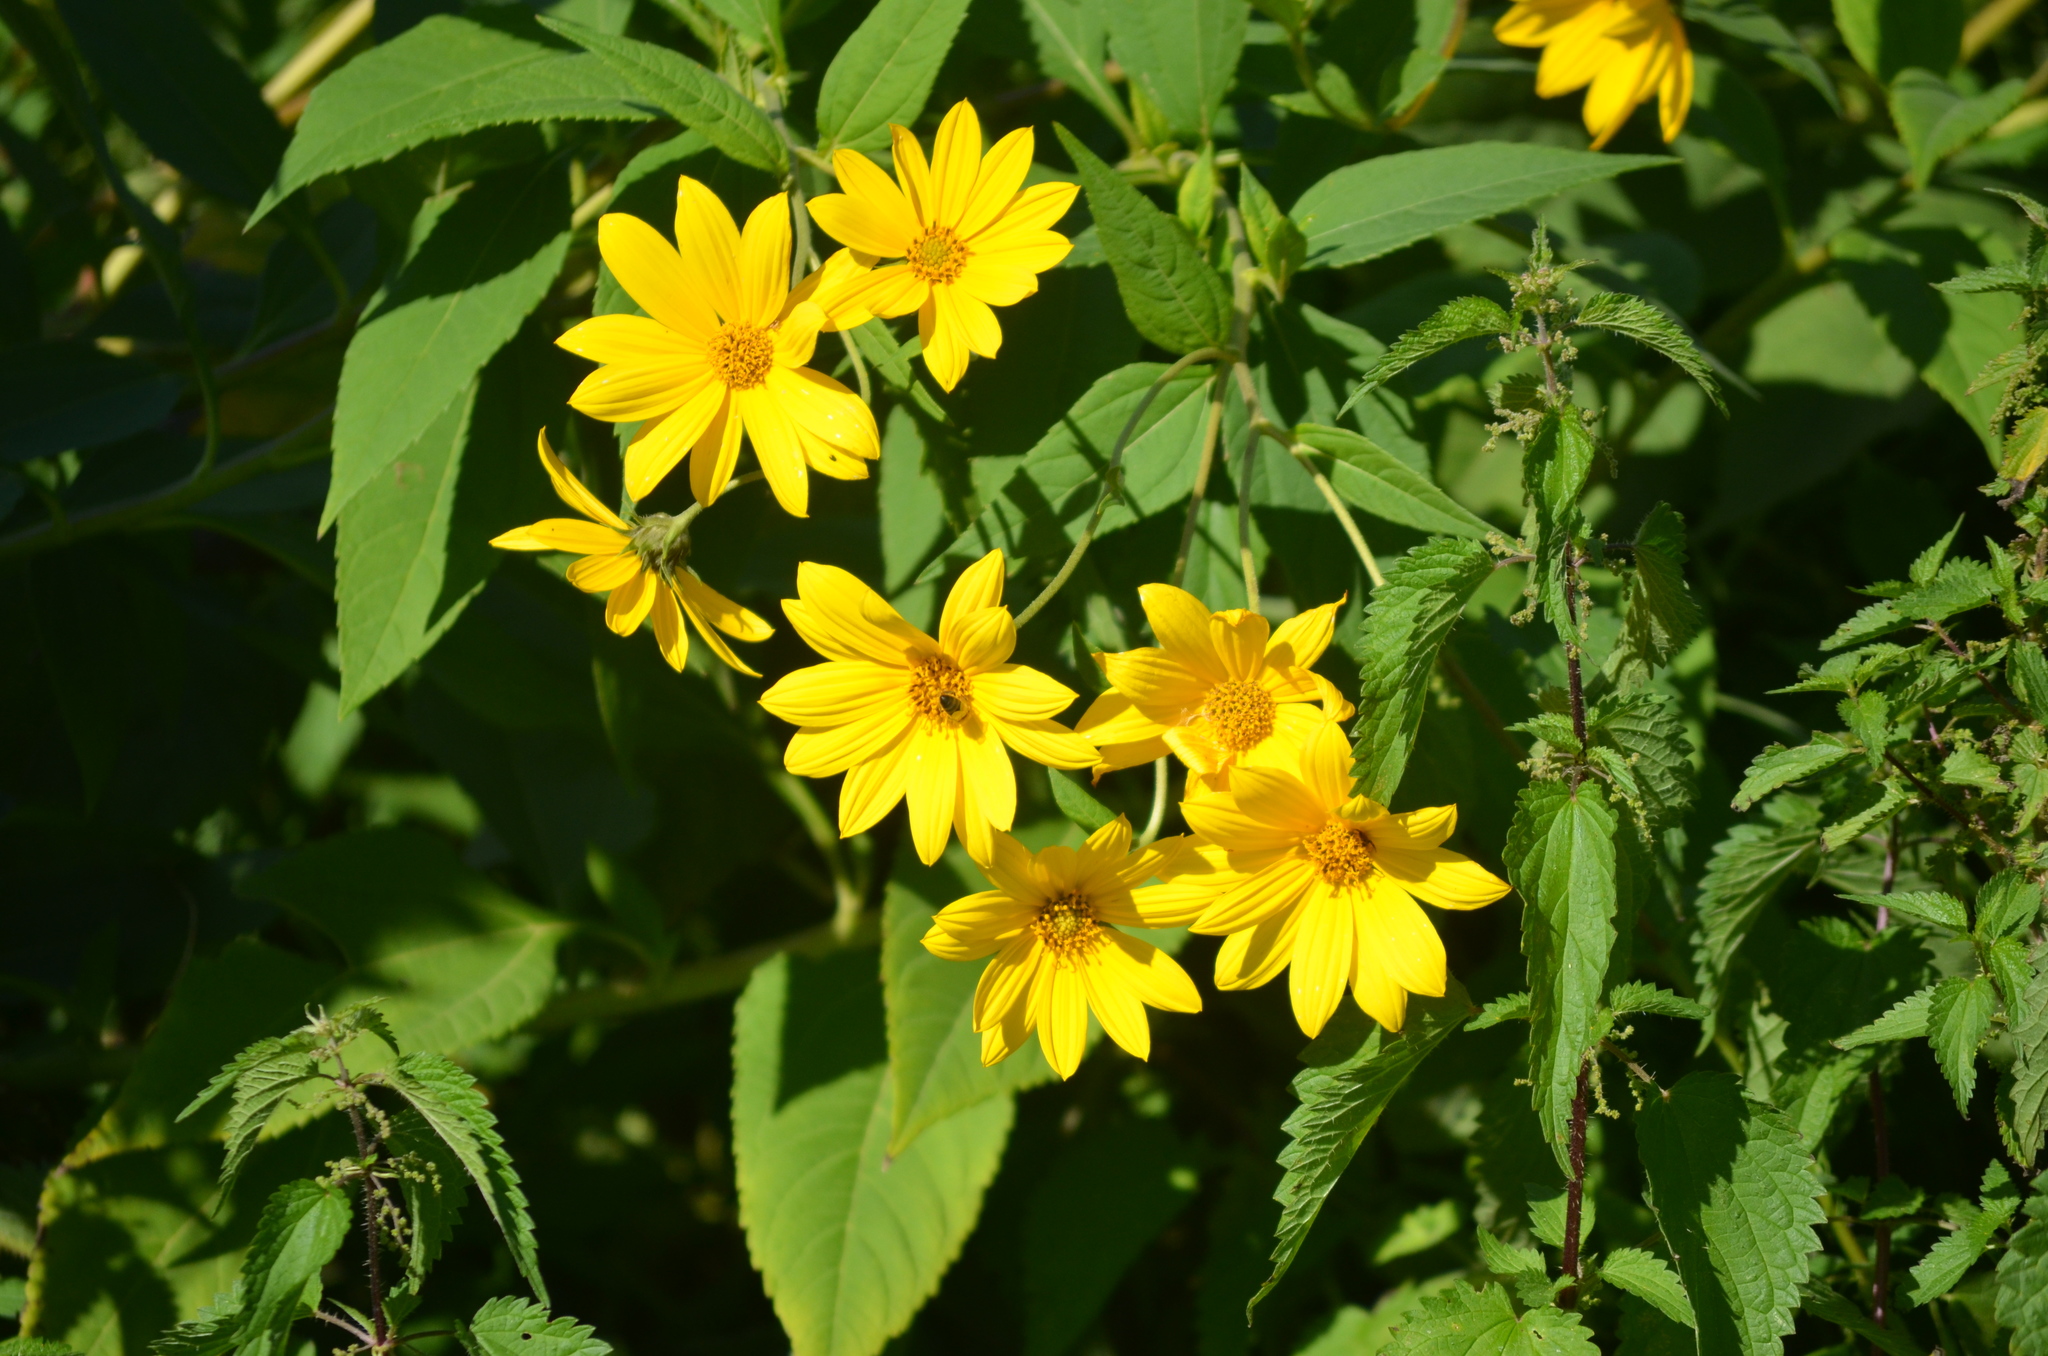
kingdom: Plantae
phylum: Tracheophyta
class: Magnoliopsida
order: Asterales
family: Asteraceae
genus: Helianthus
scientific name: Helianthus tuberosus
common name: Jerusalem artichoke
